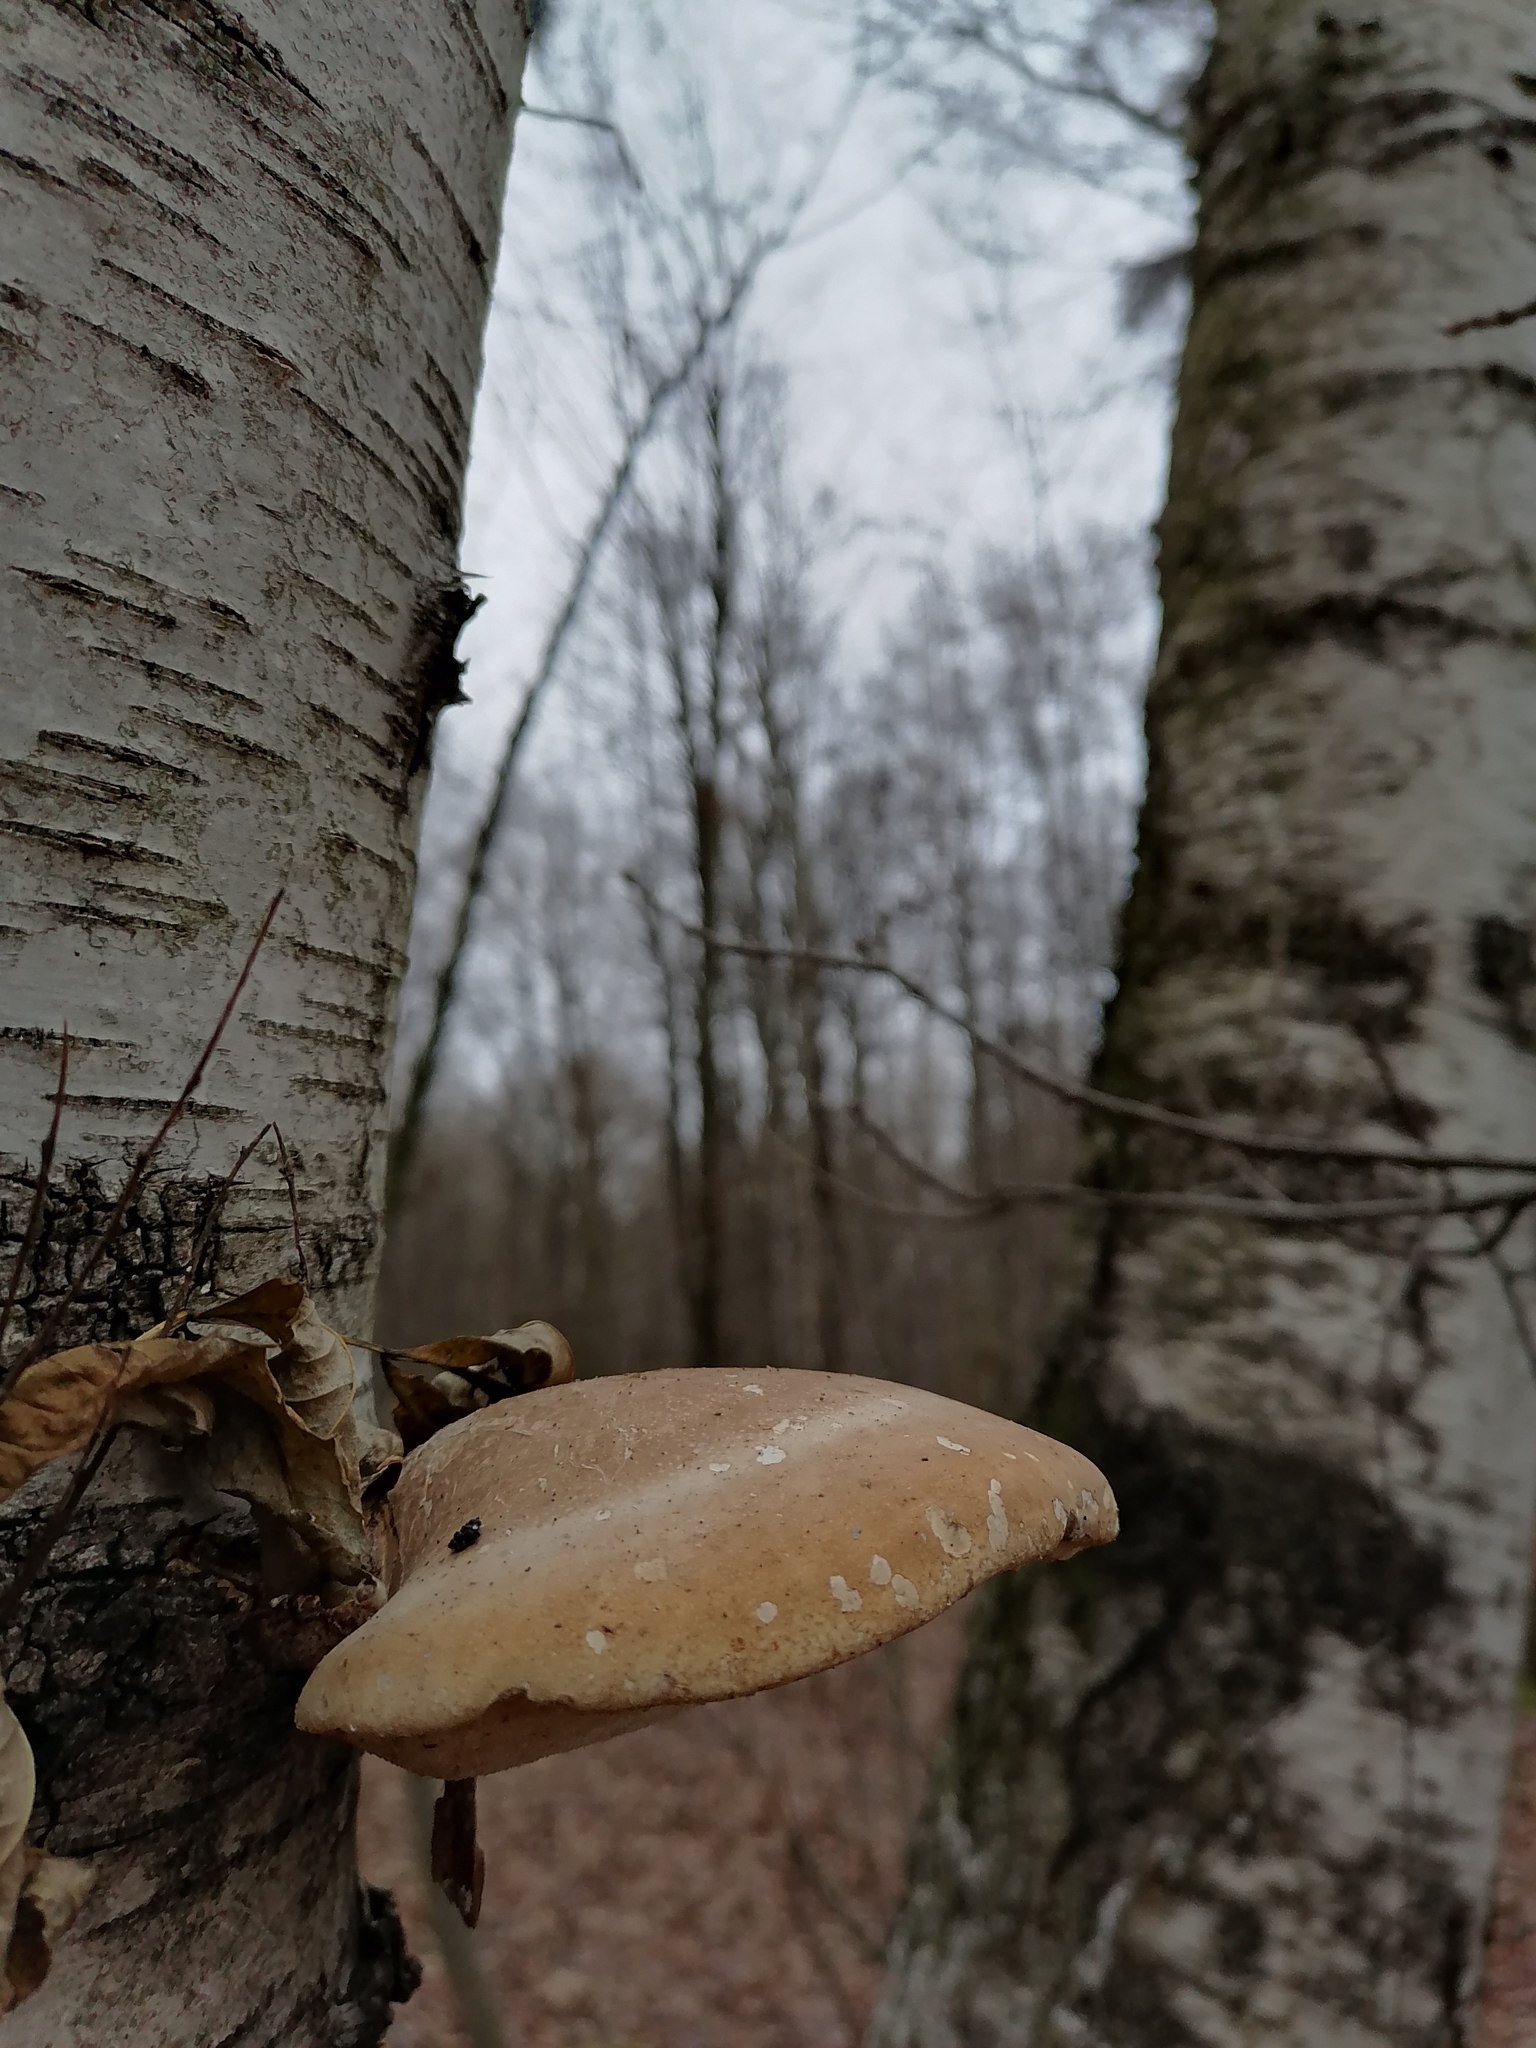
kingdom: Fungi
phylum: Basidiomycota
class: Agaricomycetes
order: Polyporales
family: Fomitopsidaceae
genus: Fomitopsis
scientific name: Fomitopsis betulina
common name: Birch polypore
